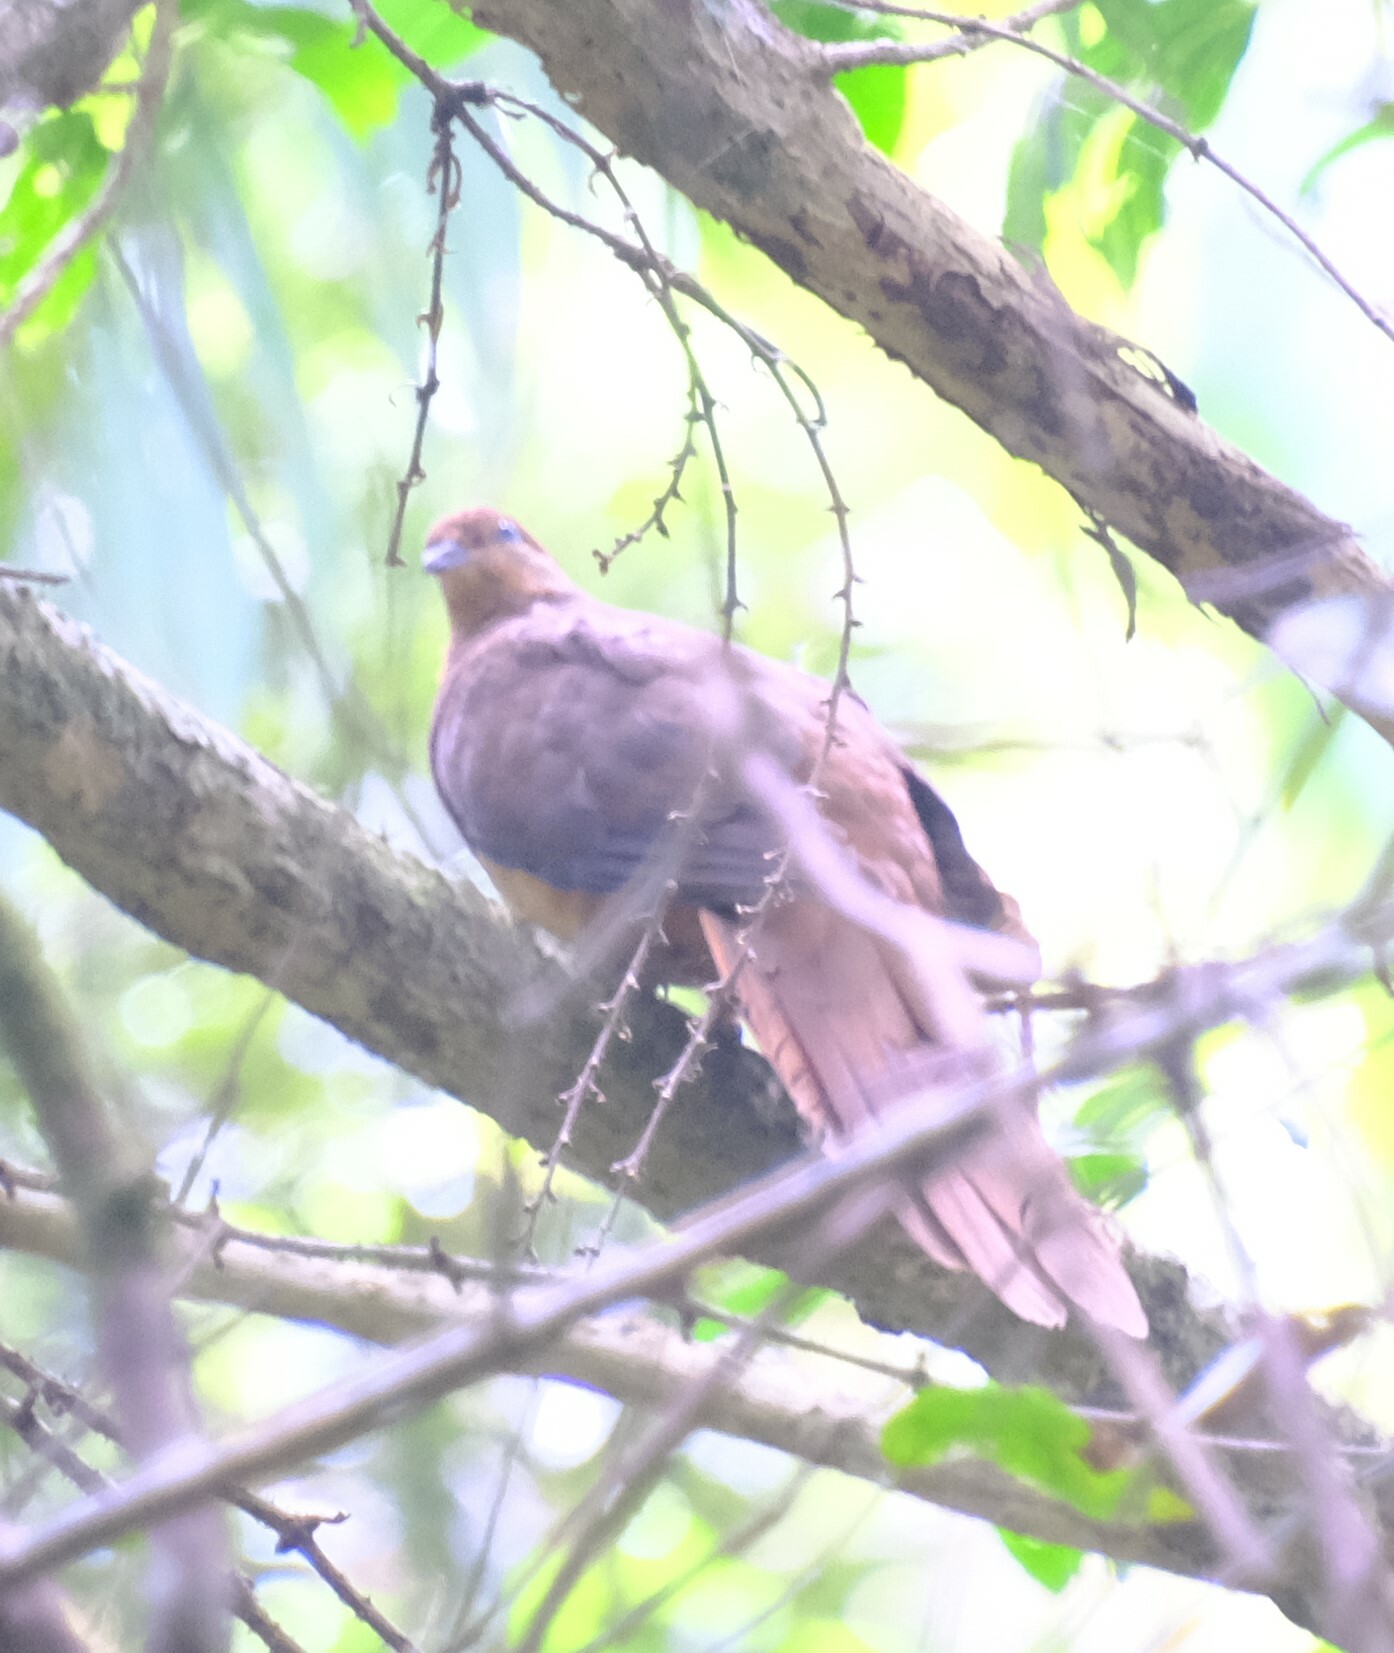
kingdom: Animalia
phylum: Chordata
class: Aves
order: Columbiformes
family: Columbidae
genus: Macropygia
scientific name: Macropygia phasianella
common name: Brown cuckoo-dove
